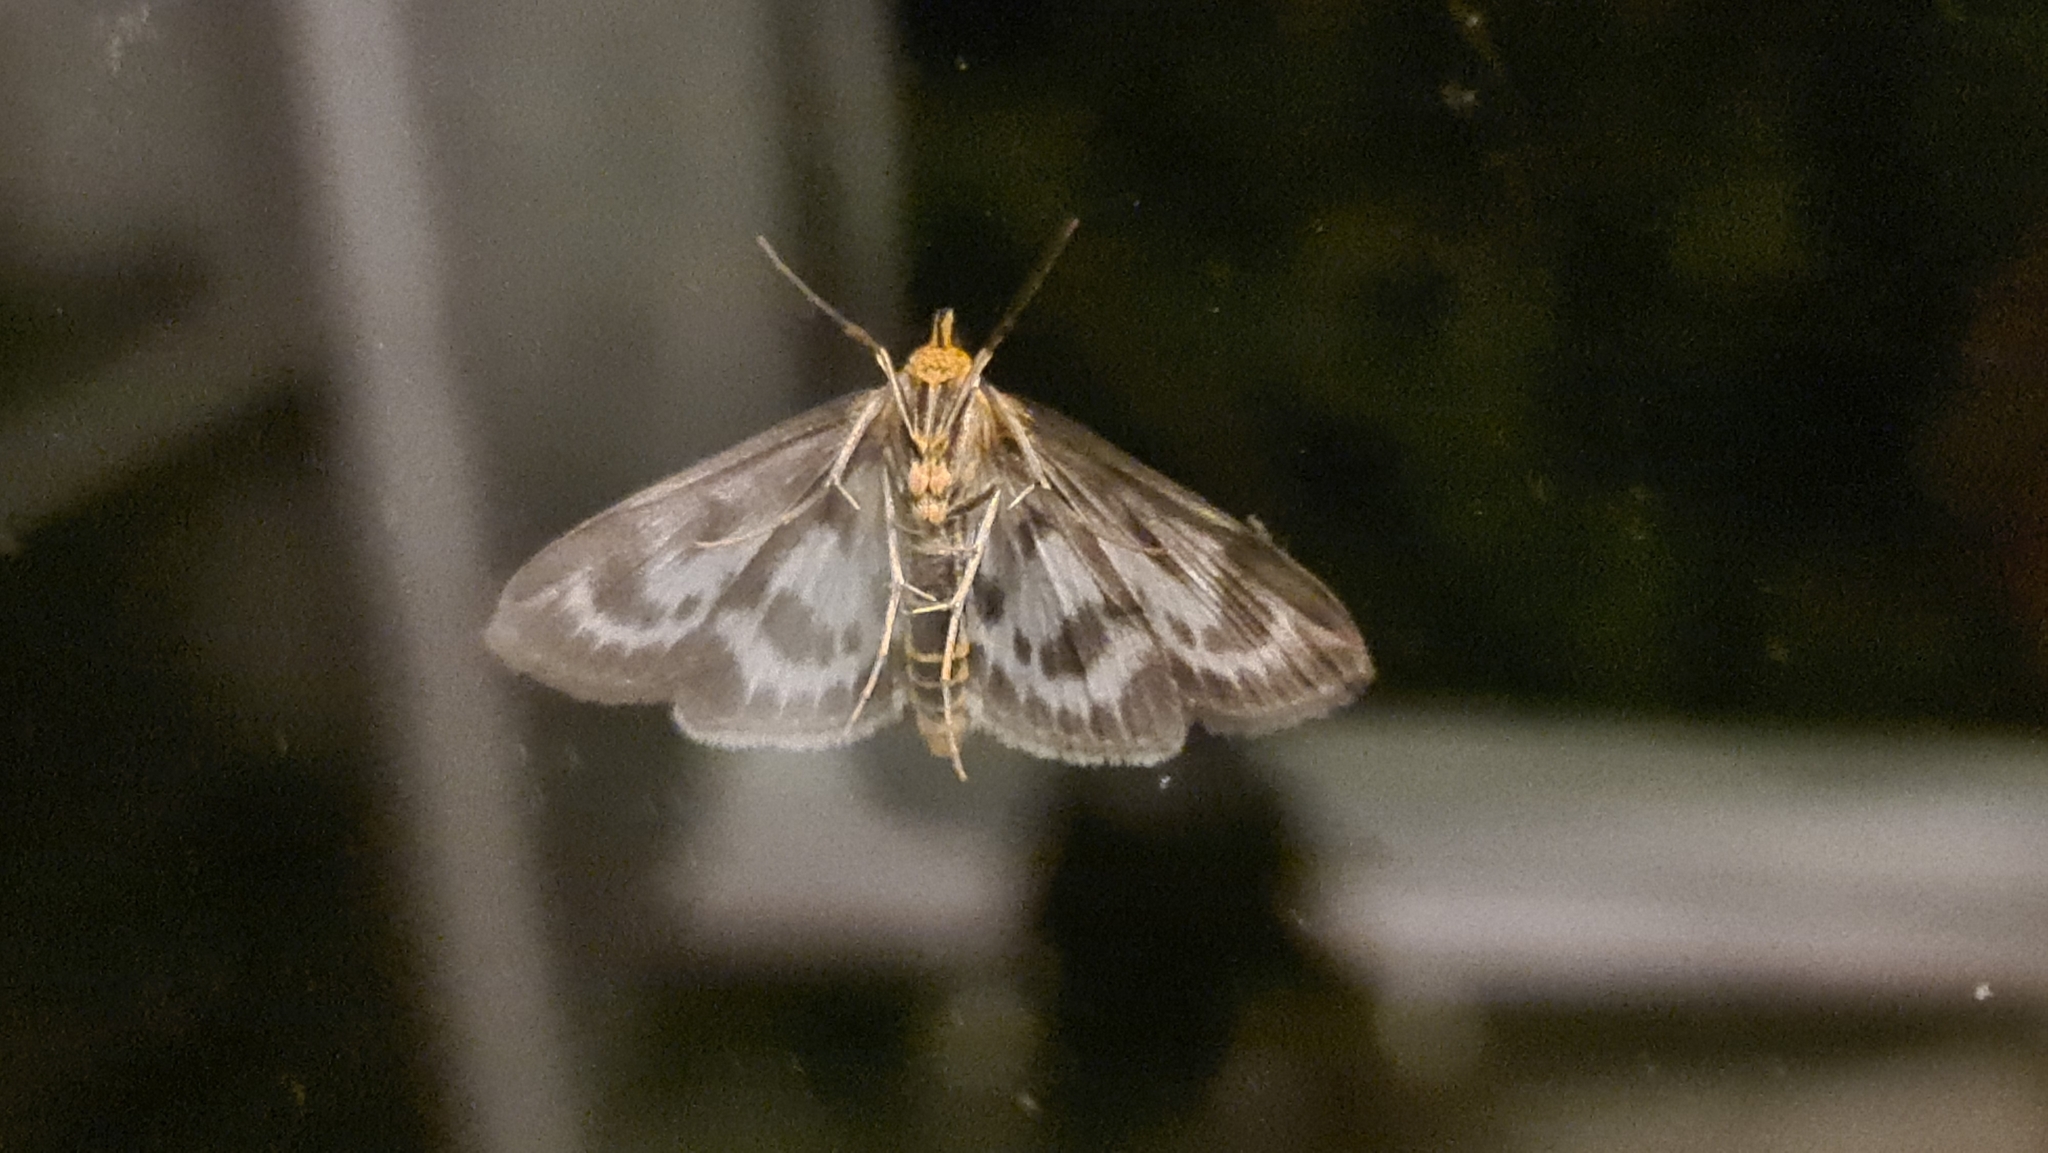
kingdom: Animalia
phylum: Arthropoda
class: Insecta
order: Lepidoptera
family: Crambidae
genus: Anania
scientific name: Anania hortulata
